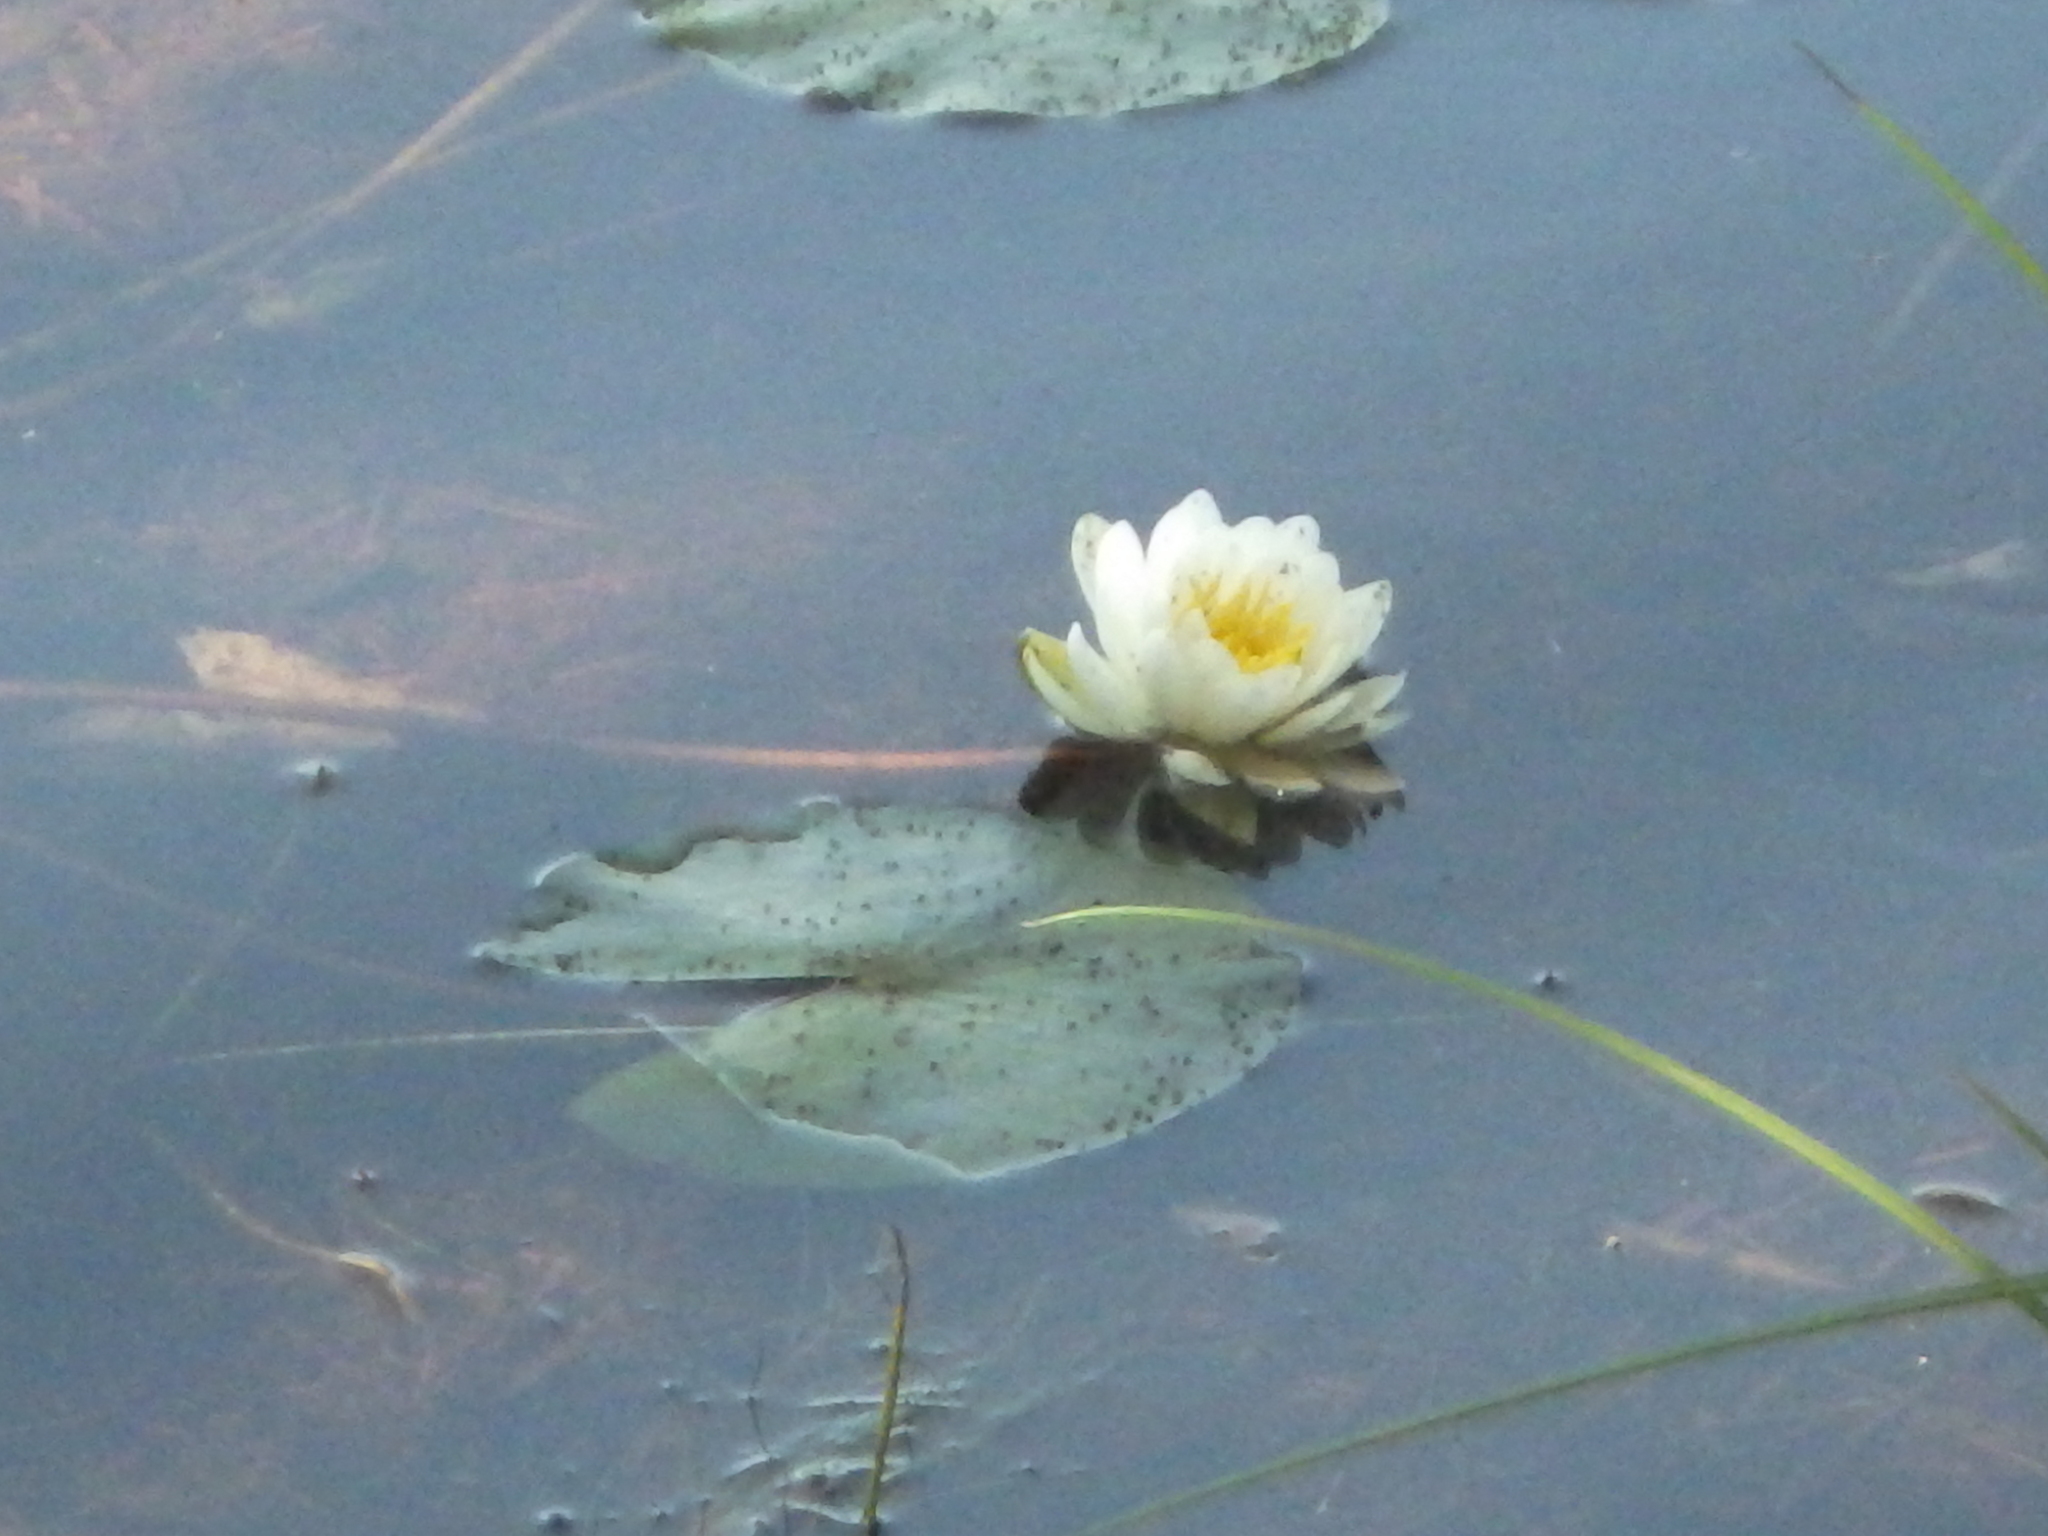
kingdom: Plantae
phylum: Tracheophyta
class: Magnoliopsida
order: Nymphaeales
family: Nymphaeaceae
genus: Nymphaea
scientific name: Nymphaea odorata
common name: Fragrant water-lily
